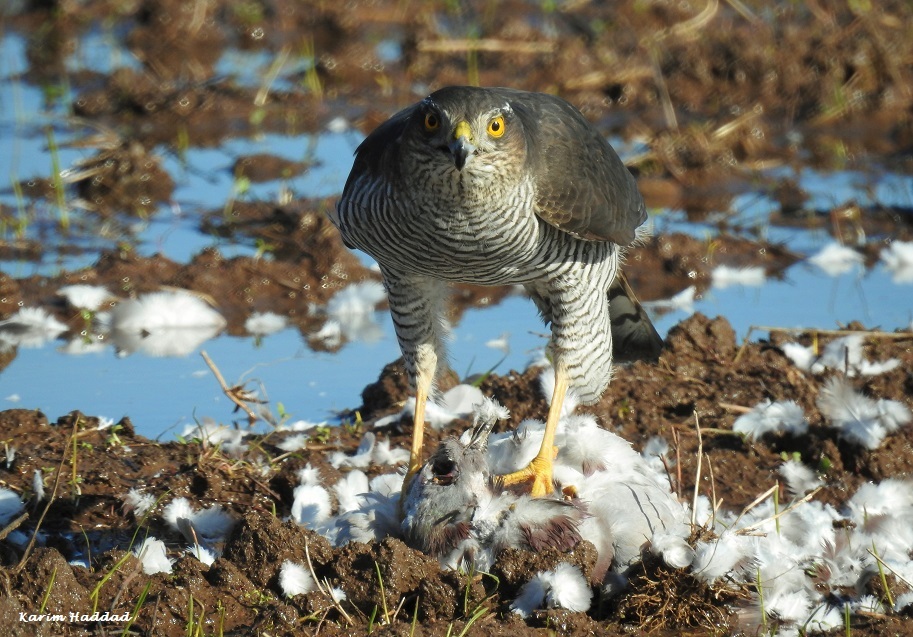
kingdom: Animalia
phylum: Chordata
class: Aves
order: Accipitriformes
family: Accipitridae
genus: Accipiter
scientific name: Accipiter nisus
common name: Eurasian sparrowhawk
